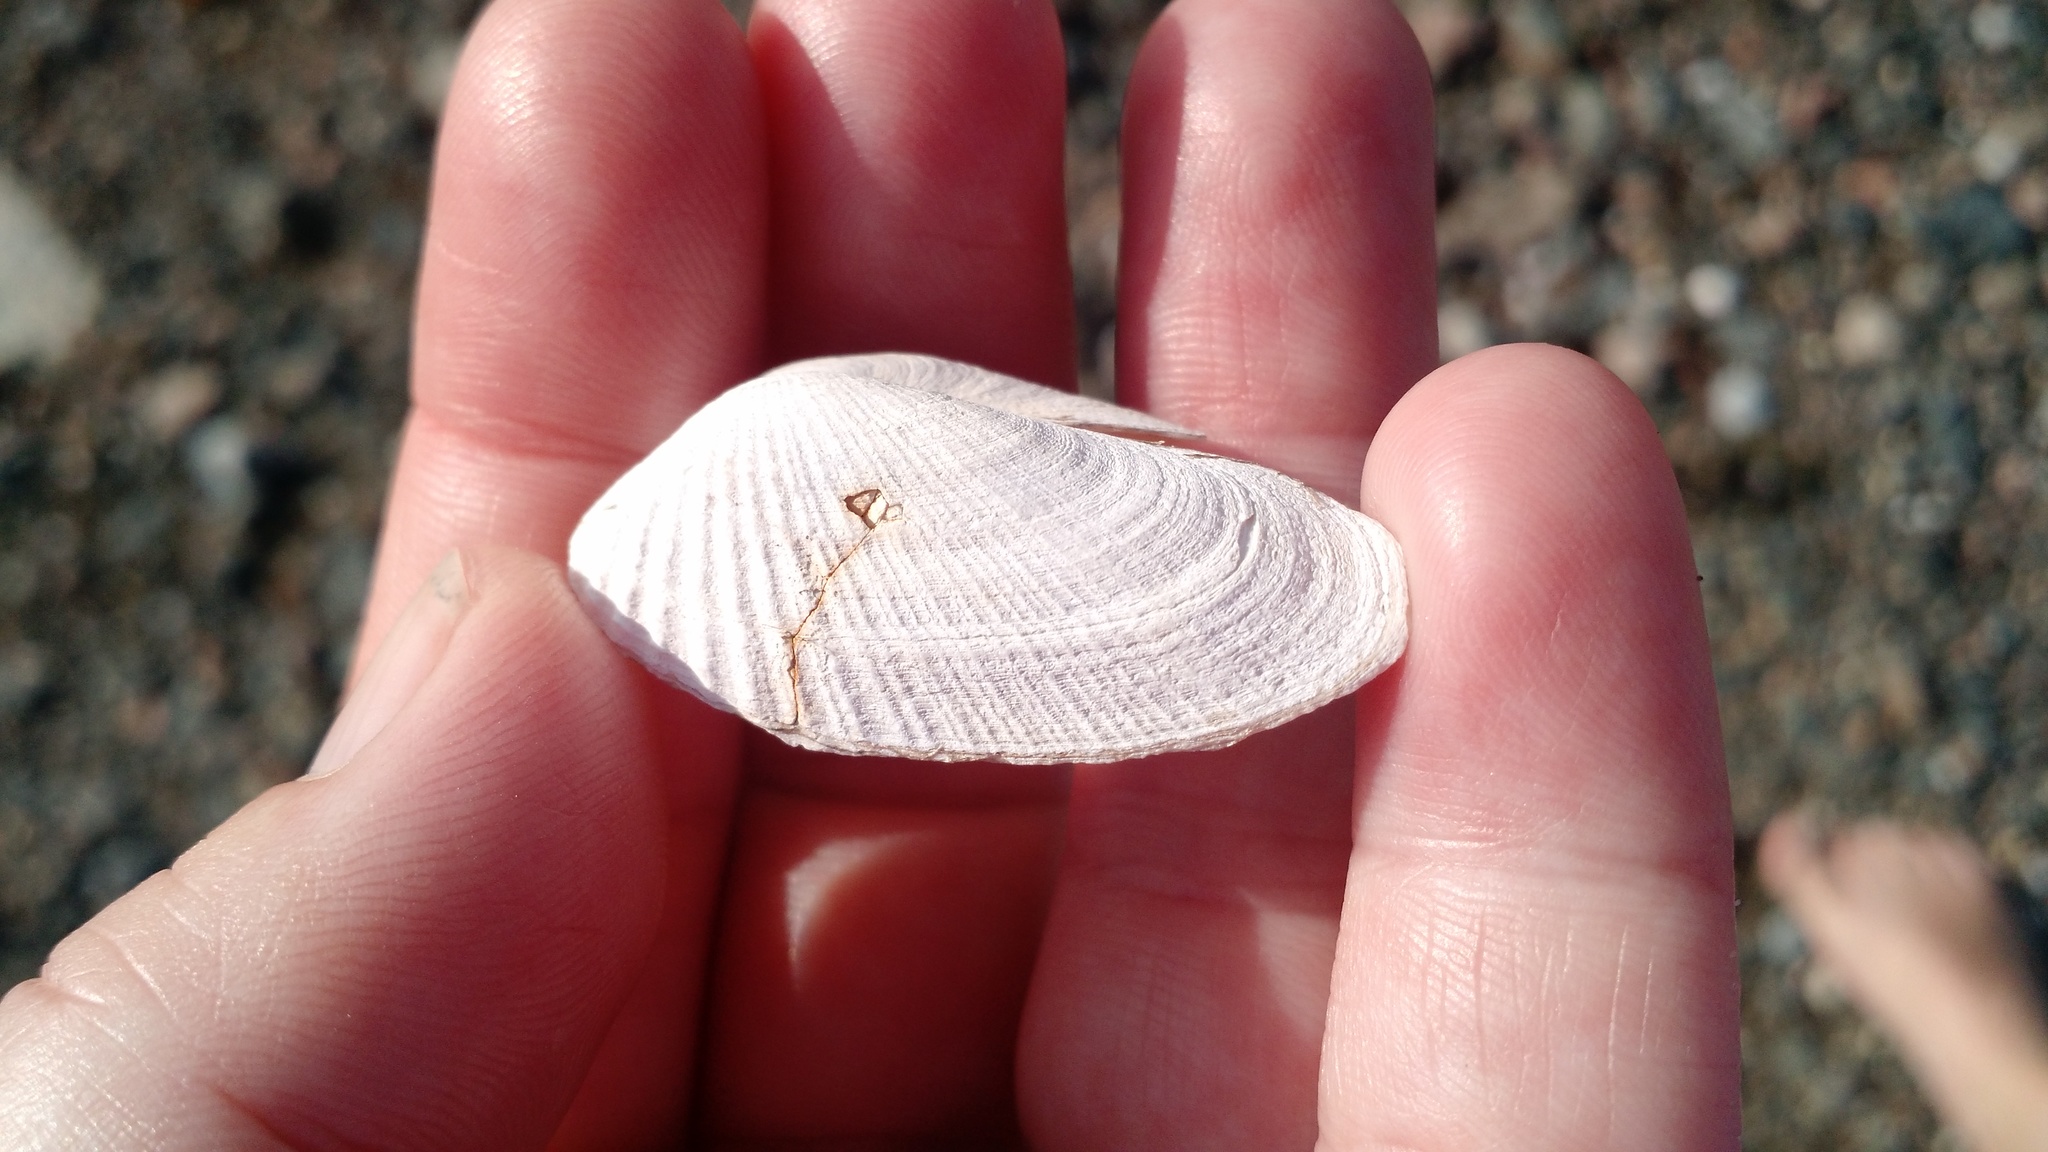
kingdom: Animalia
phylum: Mollusca
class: Bivalvia
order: Venerida
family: Veneridae
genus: Petricolaria
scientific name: Petricolaria pholadiformis
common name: American piddock
